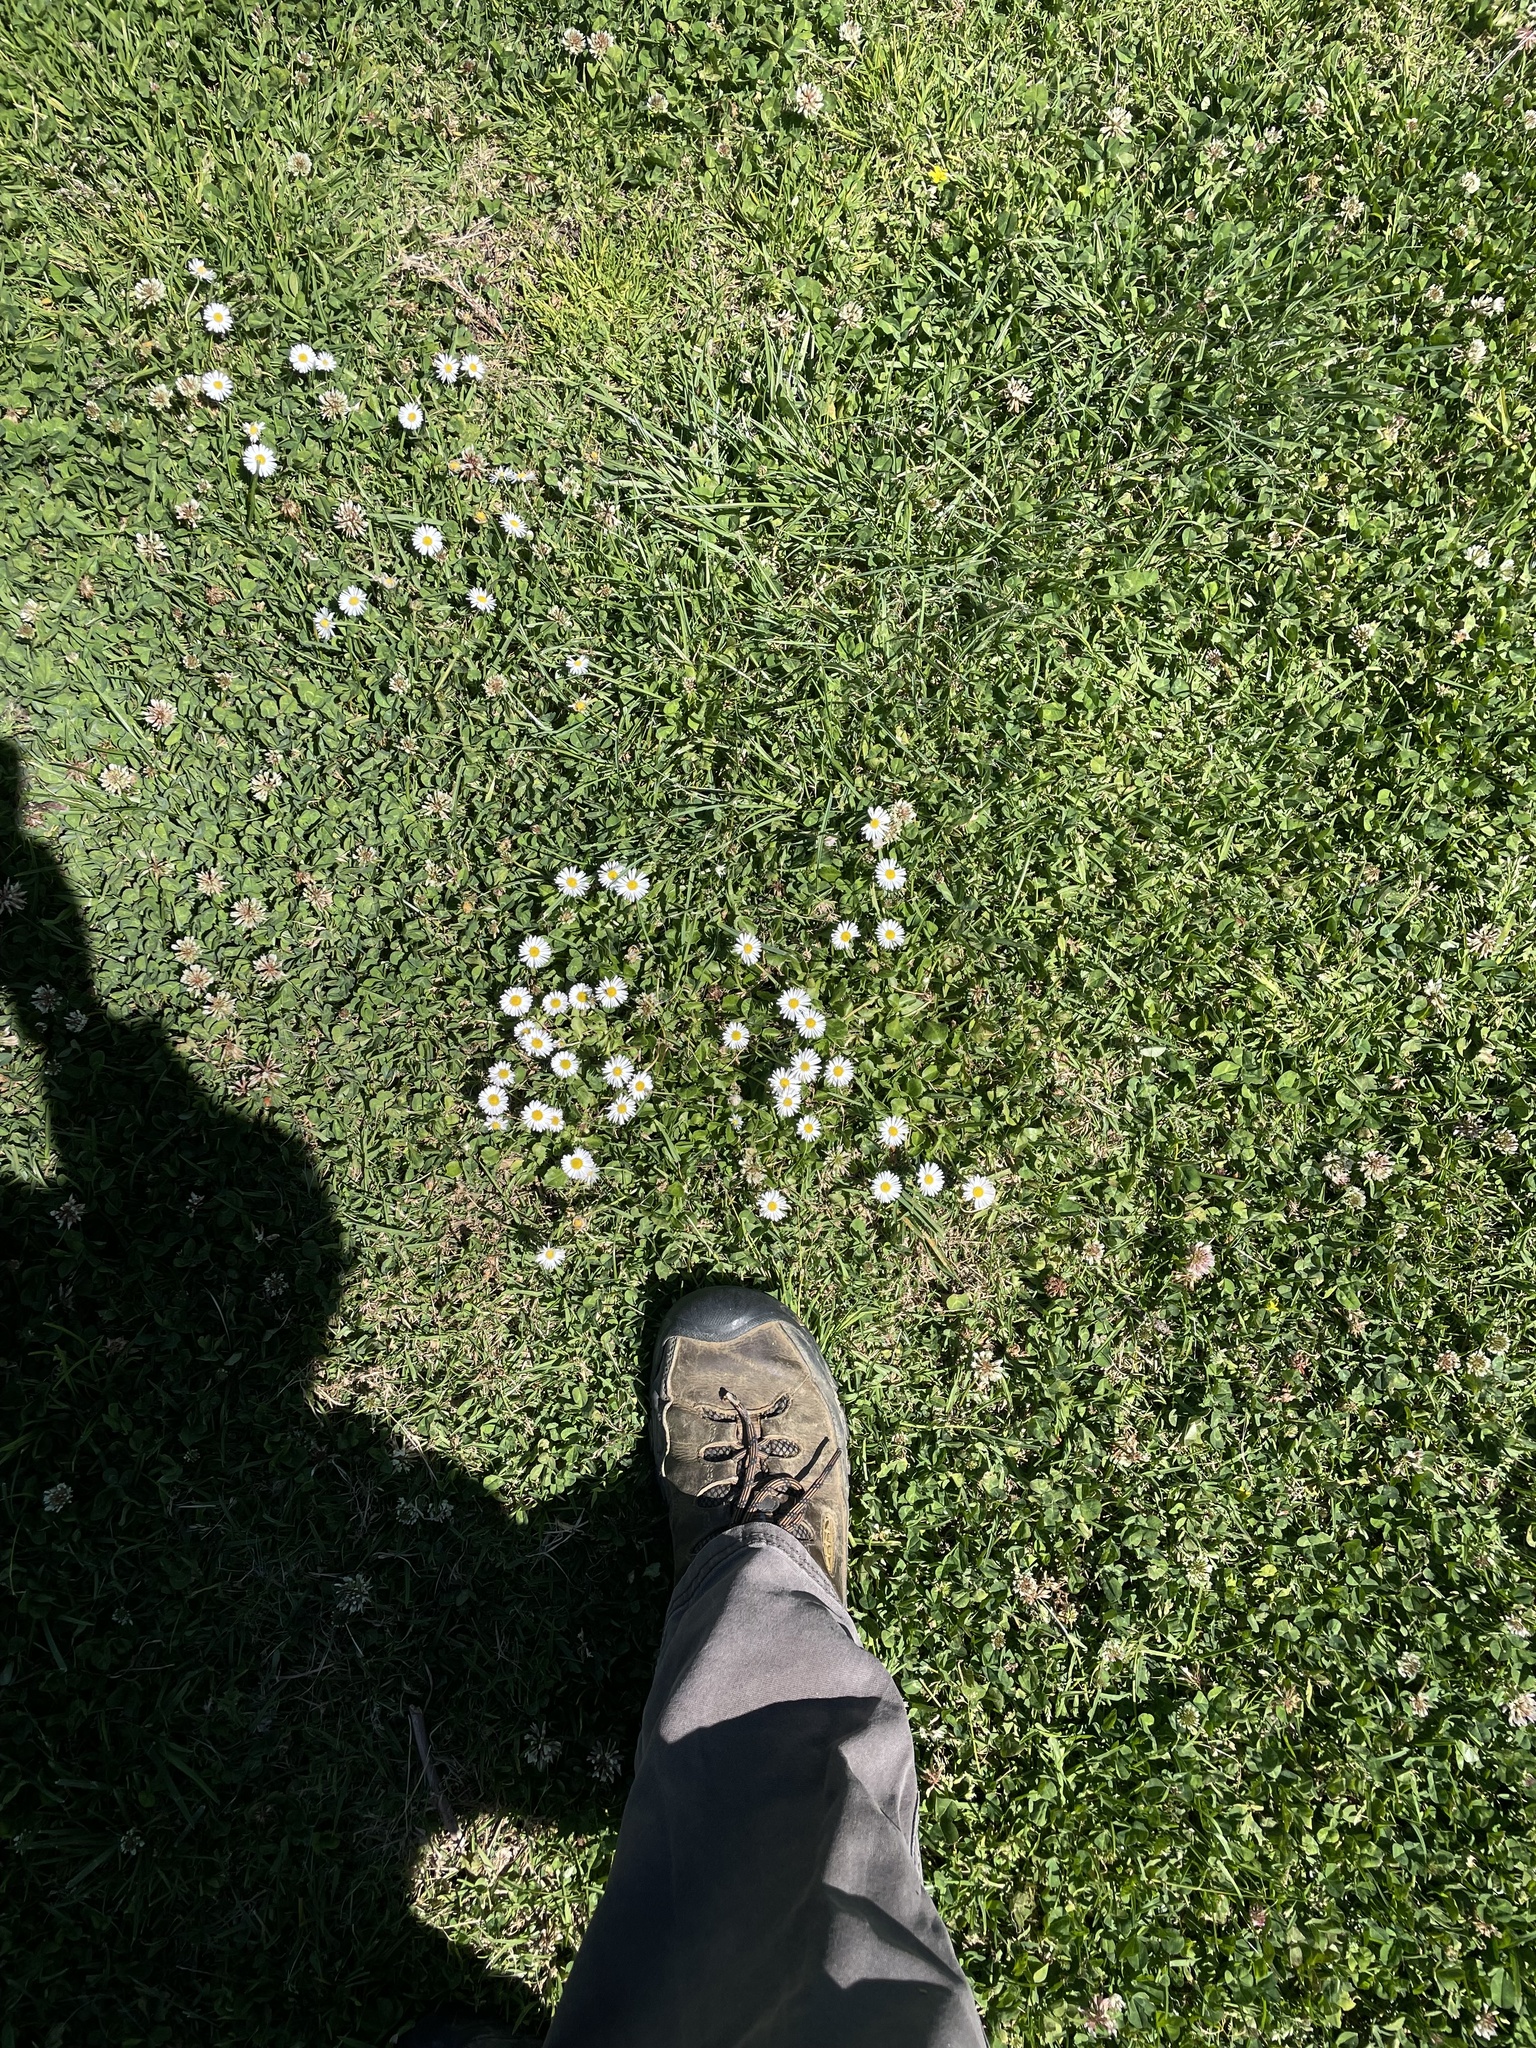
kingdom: Plantae
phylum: Tracheophyta
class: Magnoliopsida
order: Asterales
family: Asteraceae
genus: Bellis
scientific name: Bellis perennis
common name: Lawndaisy
